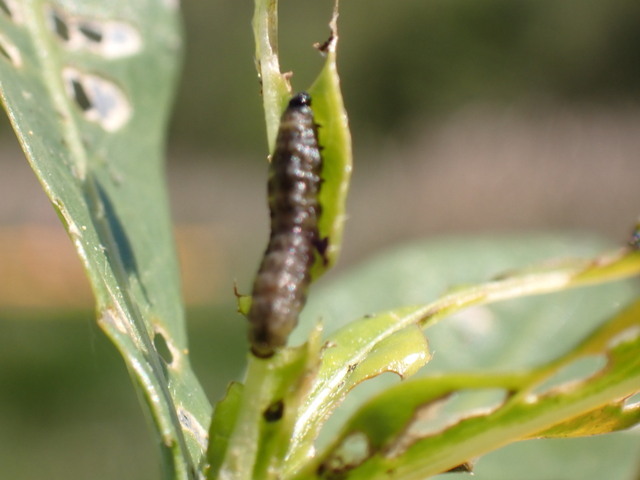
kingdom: Animalia
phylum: Arthropoda
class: Insecta
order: Coleoptera
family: Chrysomelidae
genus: Agasicles
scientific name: Agasicles hygrophila
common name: Alligatorweed flea beetle
